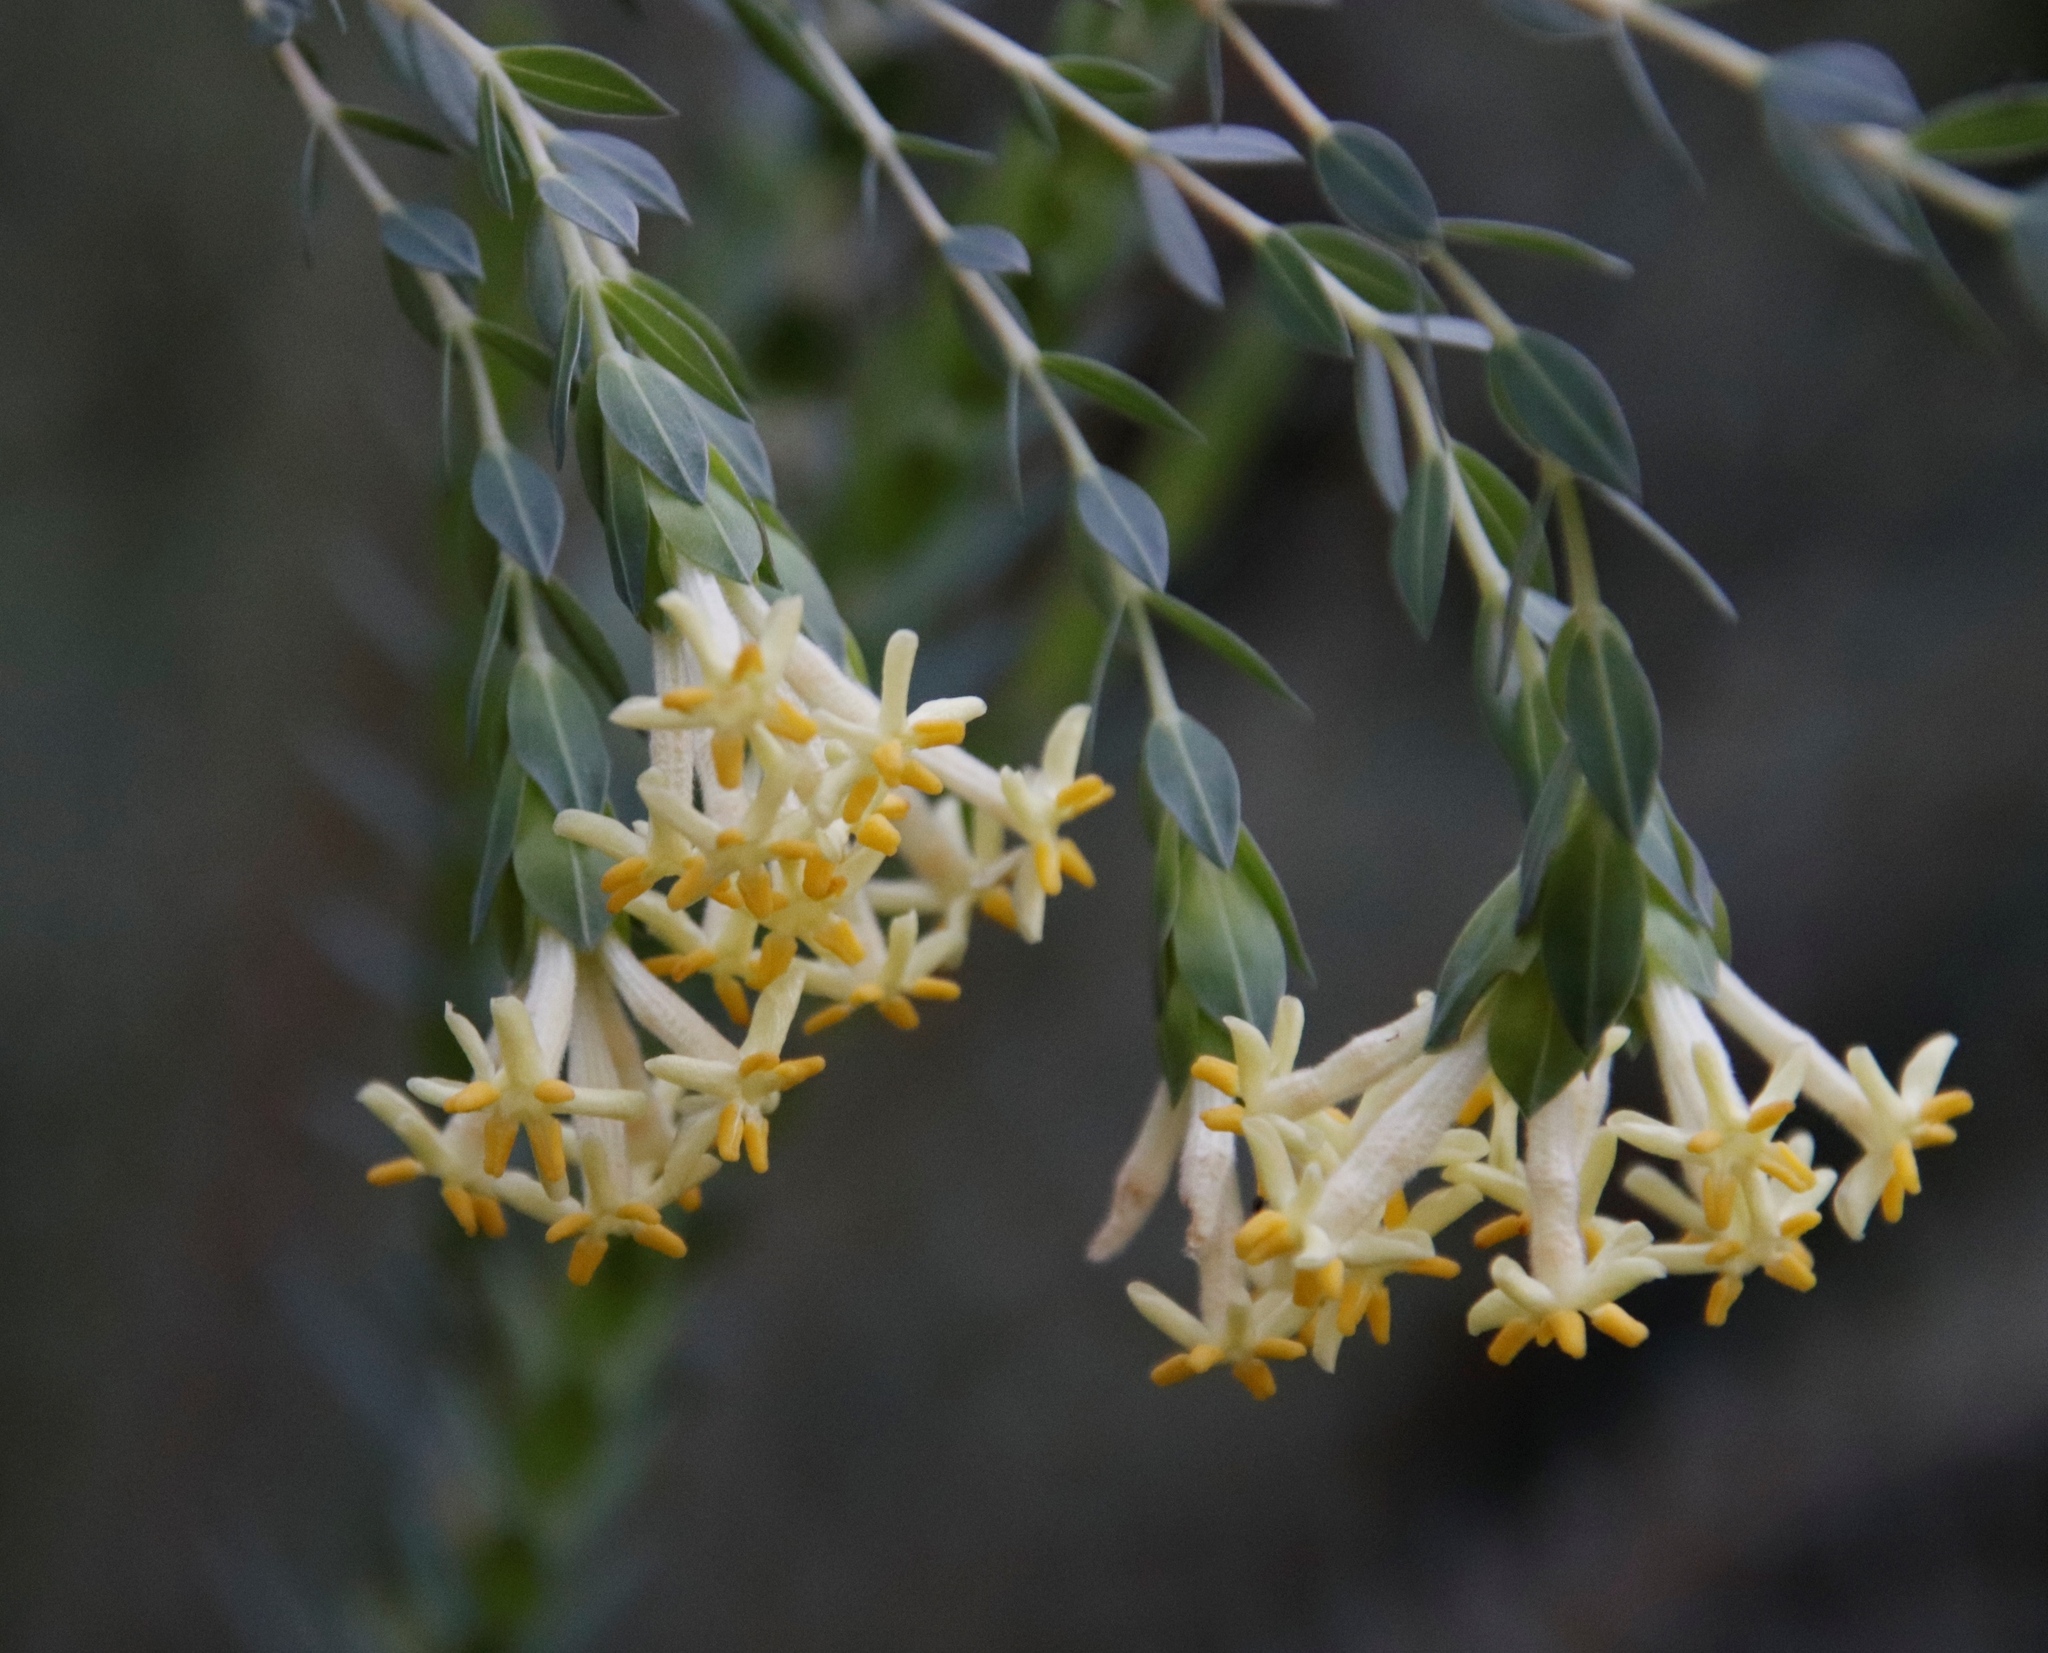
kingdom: Plantae
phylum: Tracheophyta
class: Magnoliopsida
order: Malvales
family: Thymelaeaceae
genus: Gnidia
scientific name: Gnidia oppositifolia
